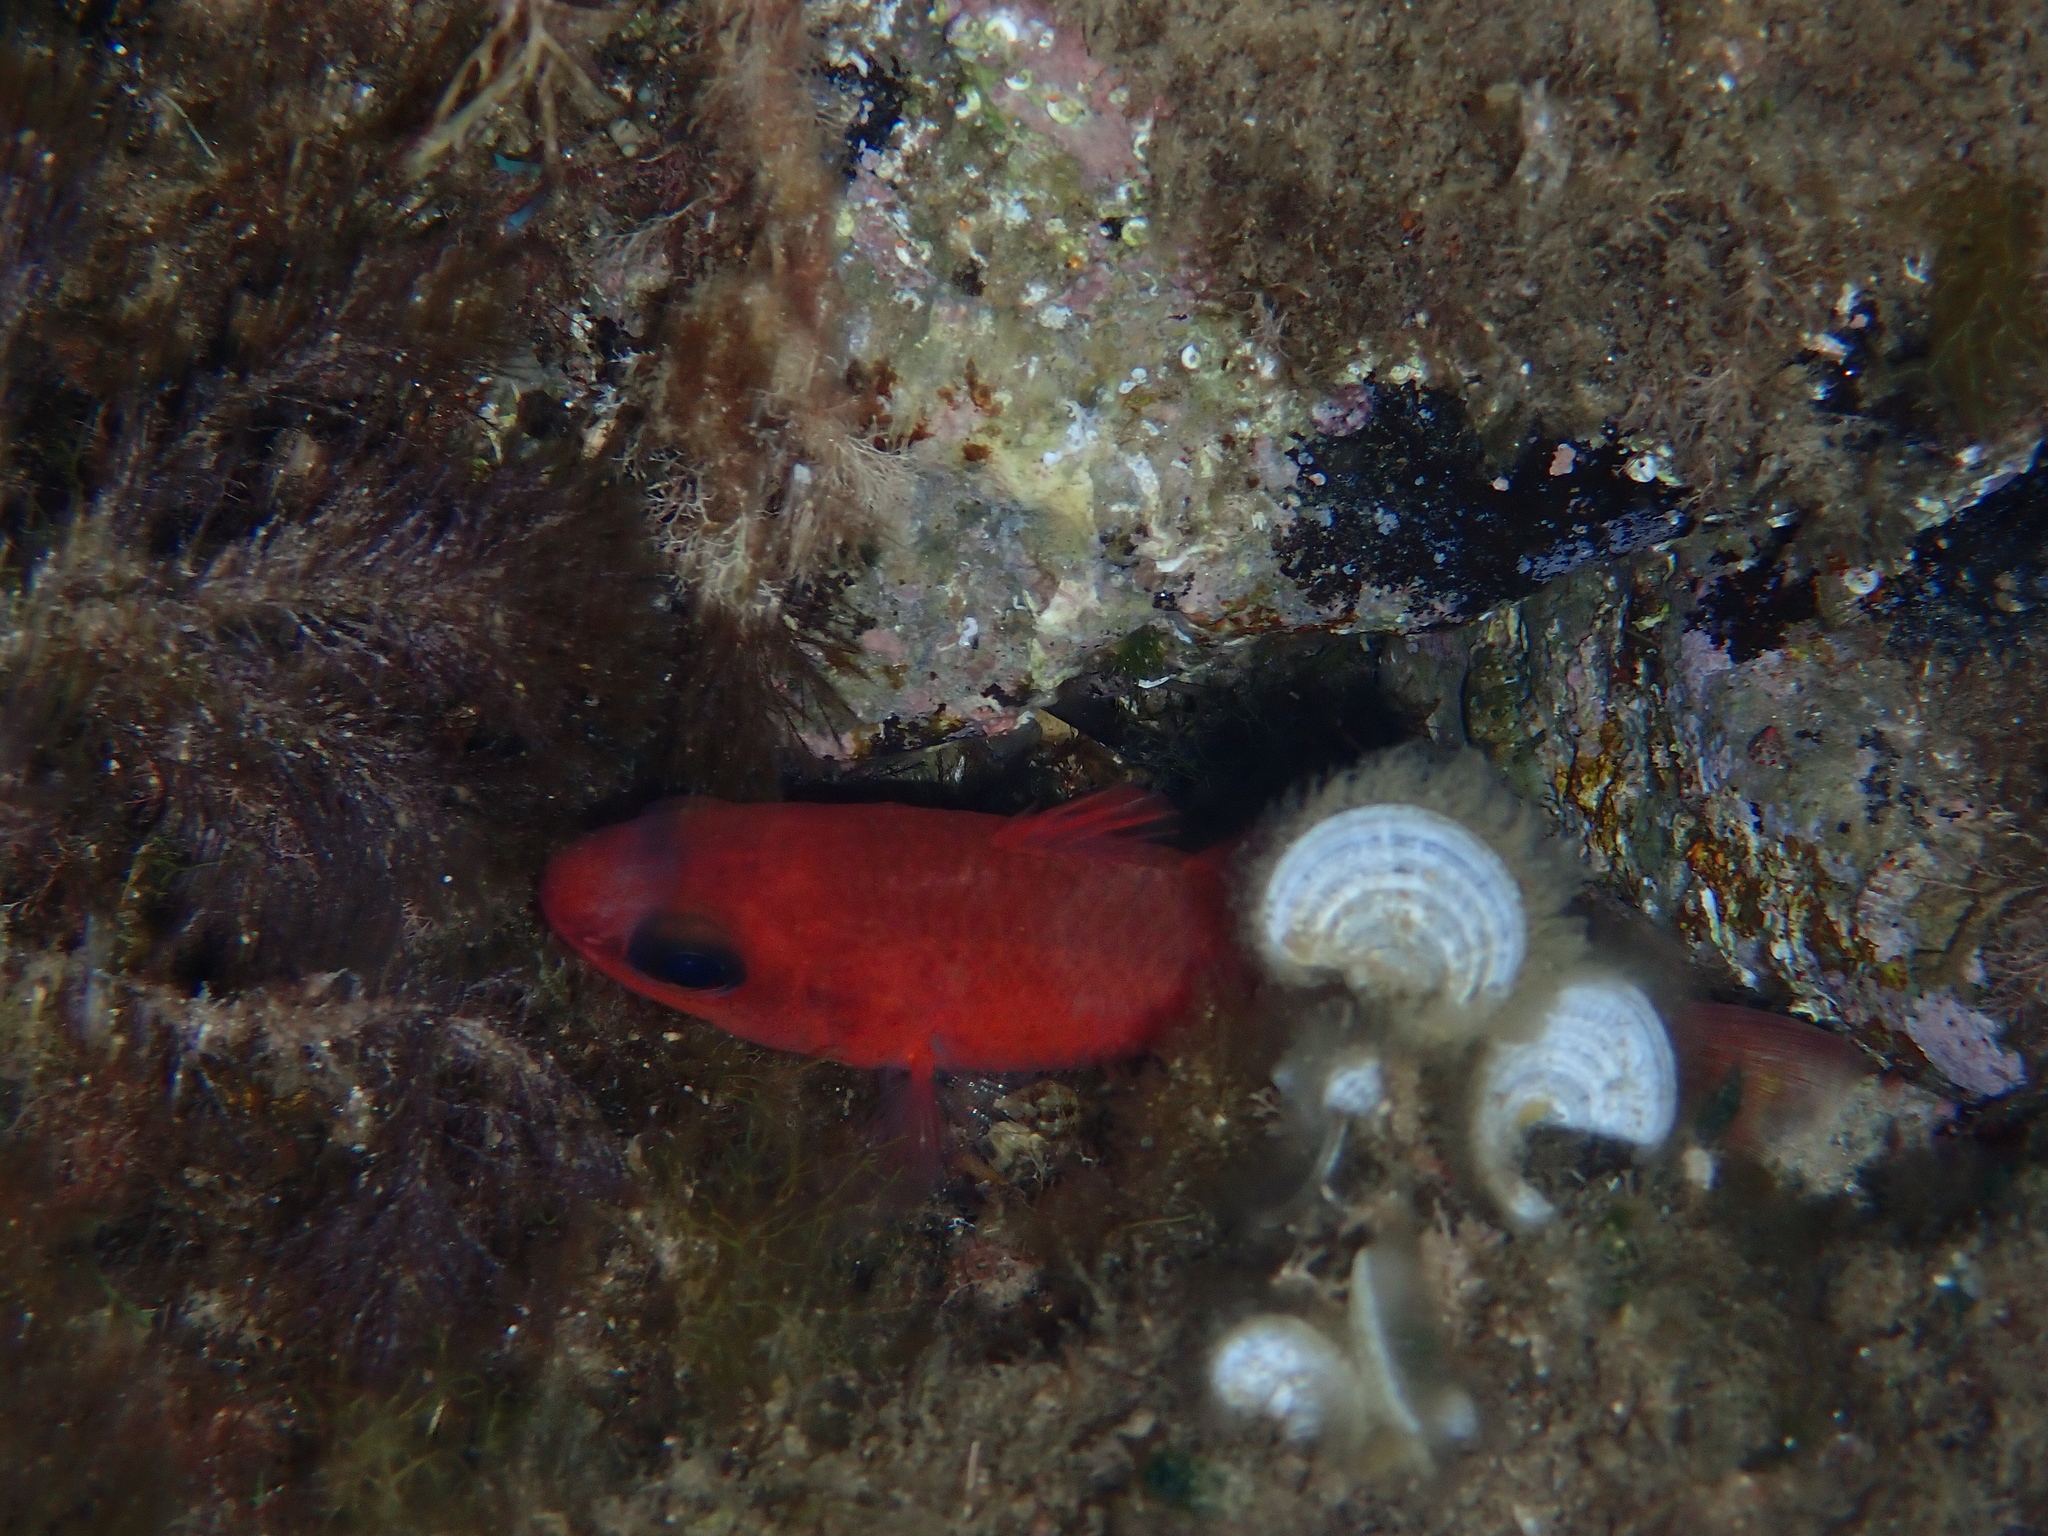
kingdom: Animalia
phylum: Chordata
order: Perciformes
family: Apogonidae
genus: Apogon
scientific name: Apogon imberbis
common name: Cardinal fish
